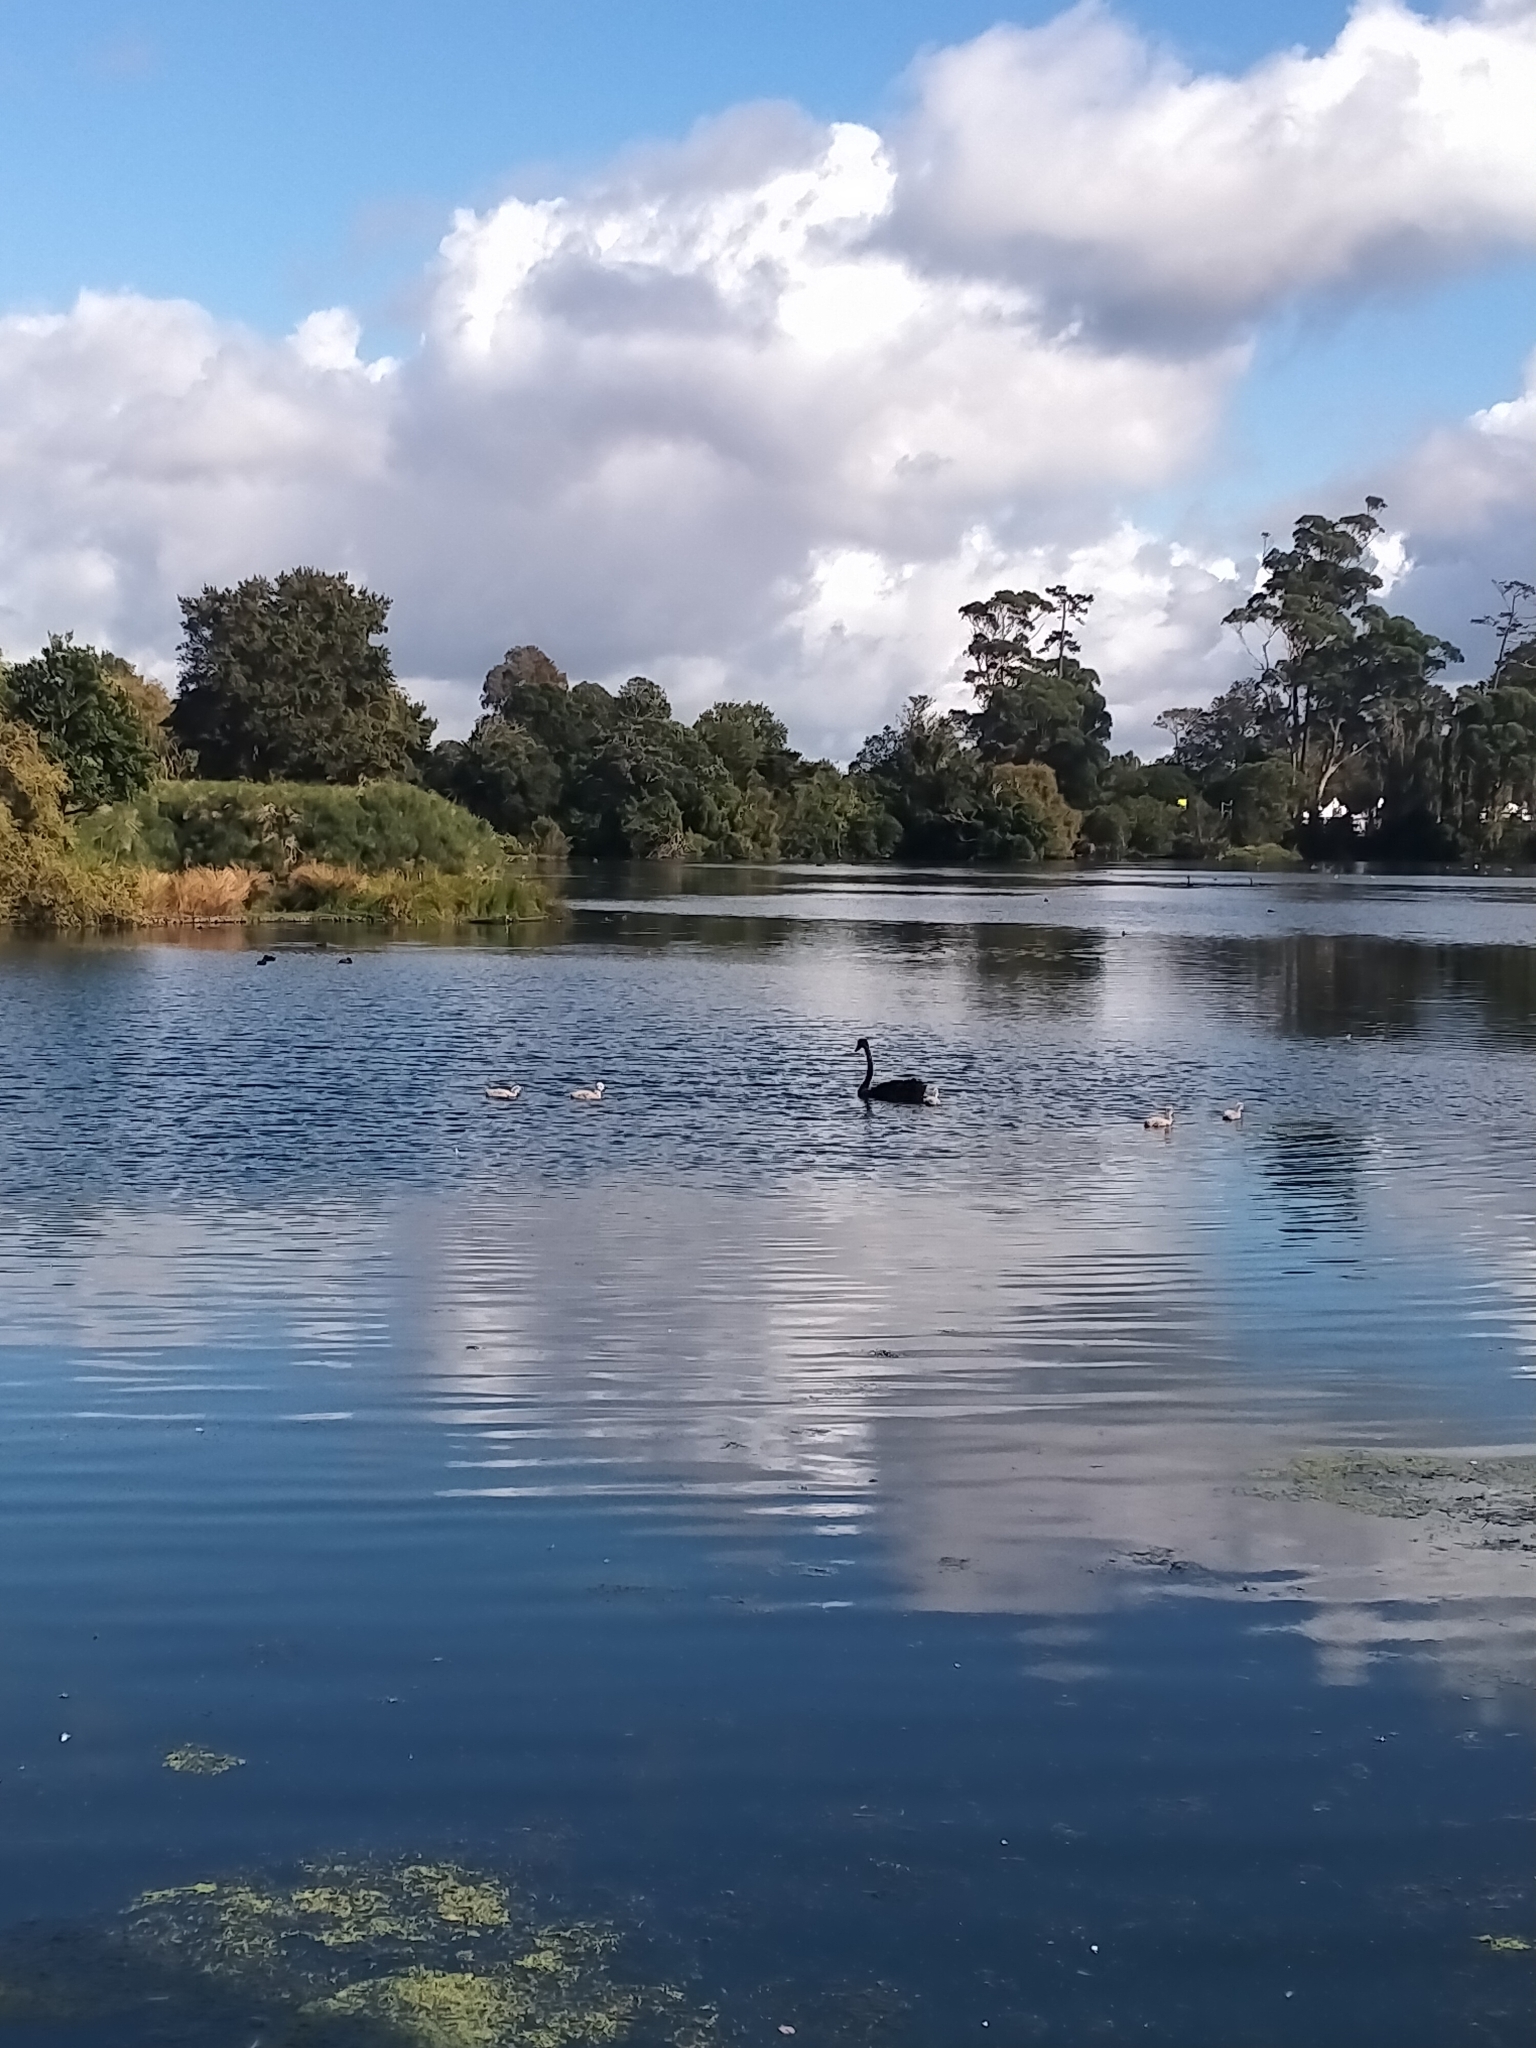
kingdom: Animalia
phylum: Chordata
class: Aves
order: Anseriformes
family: Anatidae
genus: Cygnus
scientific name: Cygnus atratus
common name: Black swan
